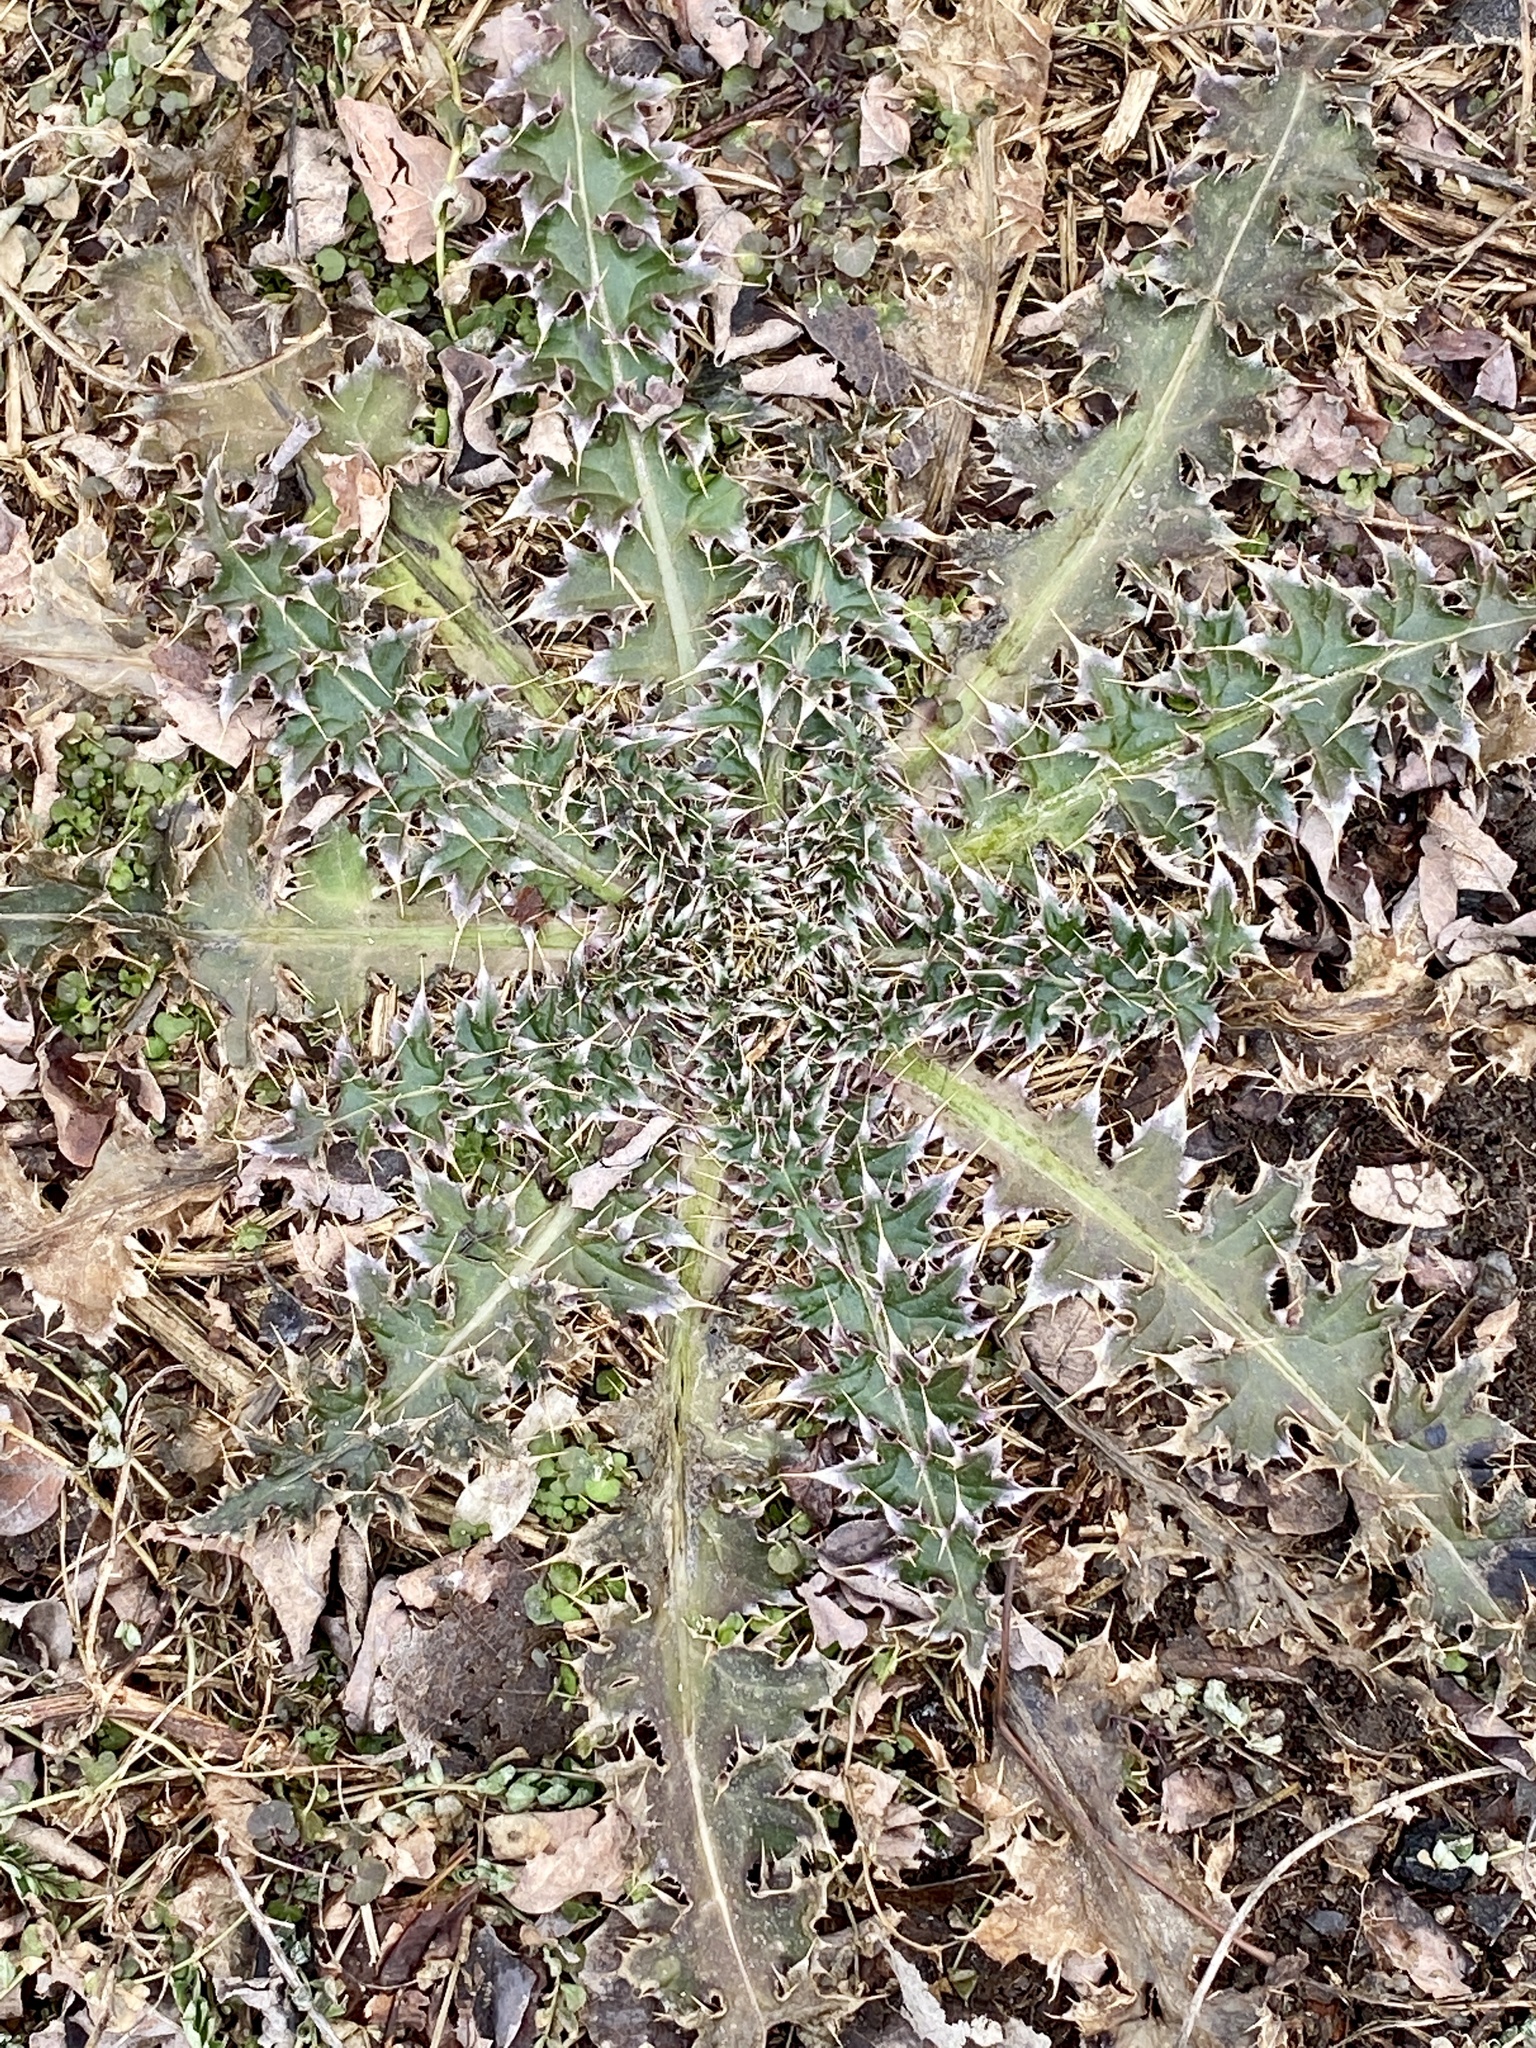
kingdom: Plantae
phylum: Tracheophyta
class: Magnoliopsida
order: Asterales
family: Asteraceae
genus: Carduus
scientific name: Carduus nutans
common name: Musk thistle
